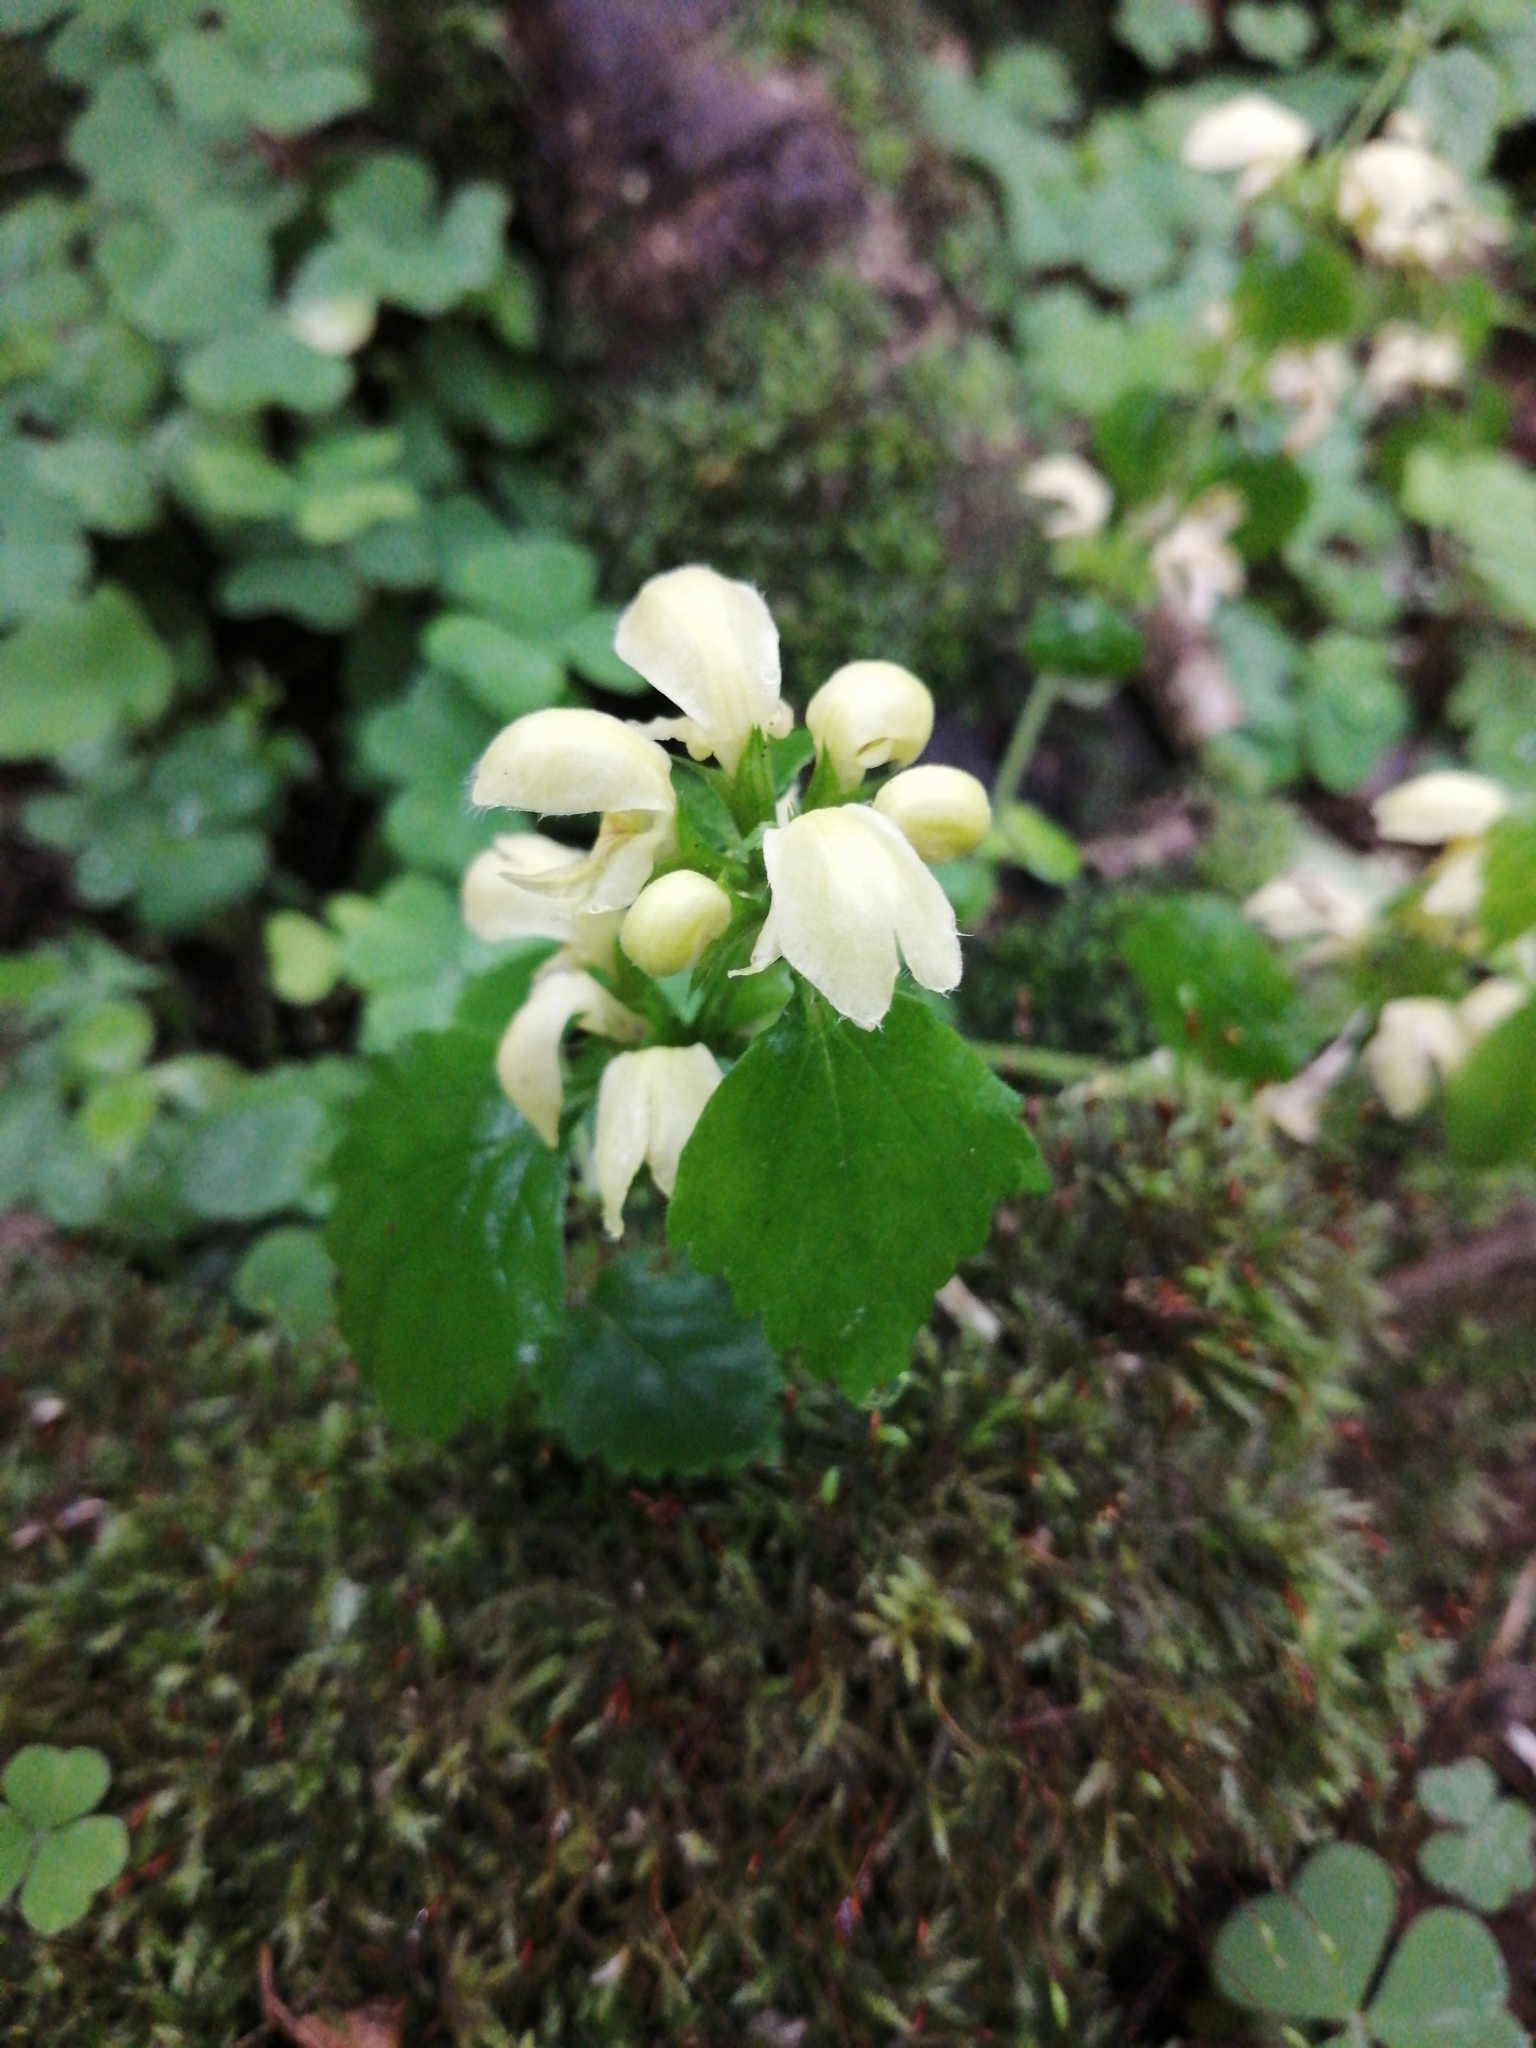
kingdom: Plantae
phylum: Tracheophyta
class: Magnoliopsida
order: Lamiales
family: Lamiaceae
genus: Lamium
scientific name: Lamium galeobdolon
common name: Yellow archangel
